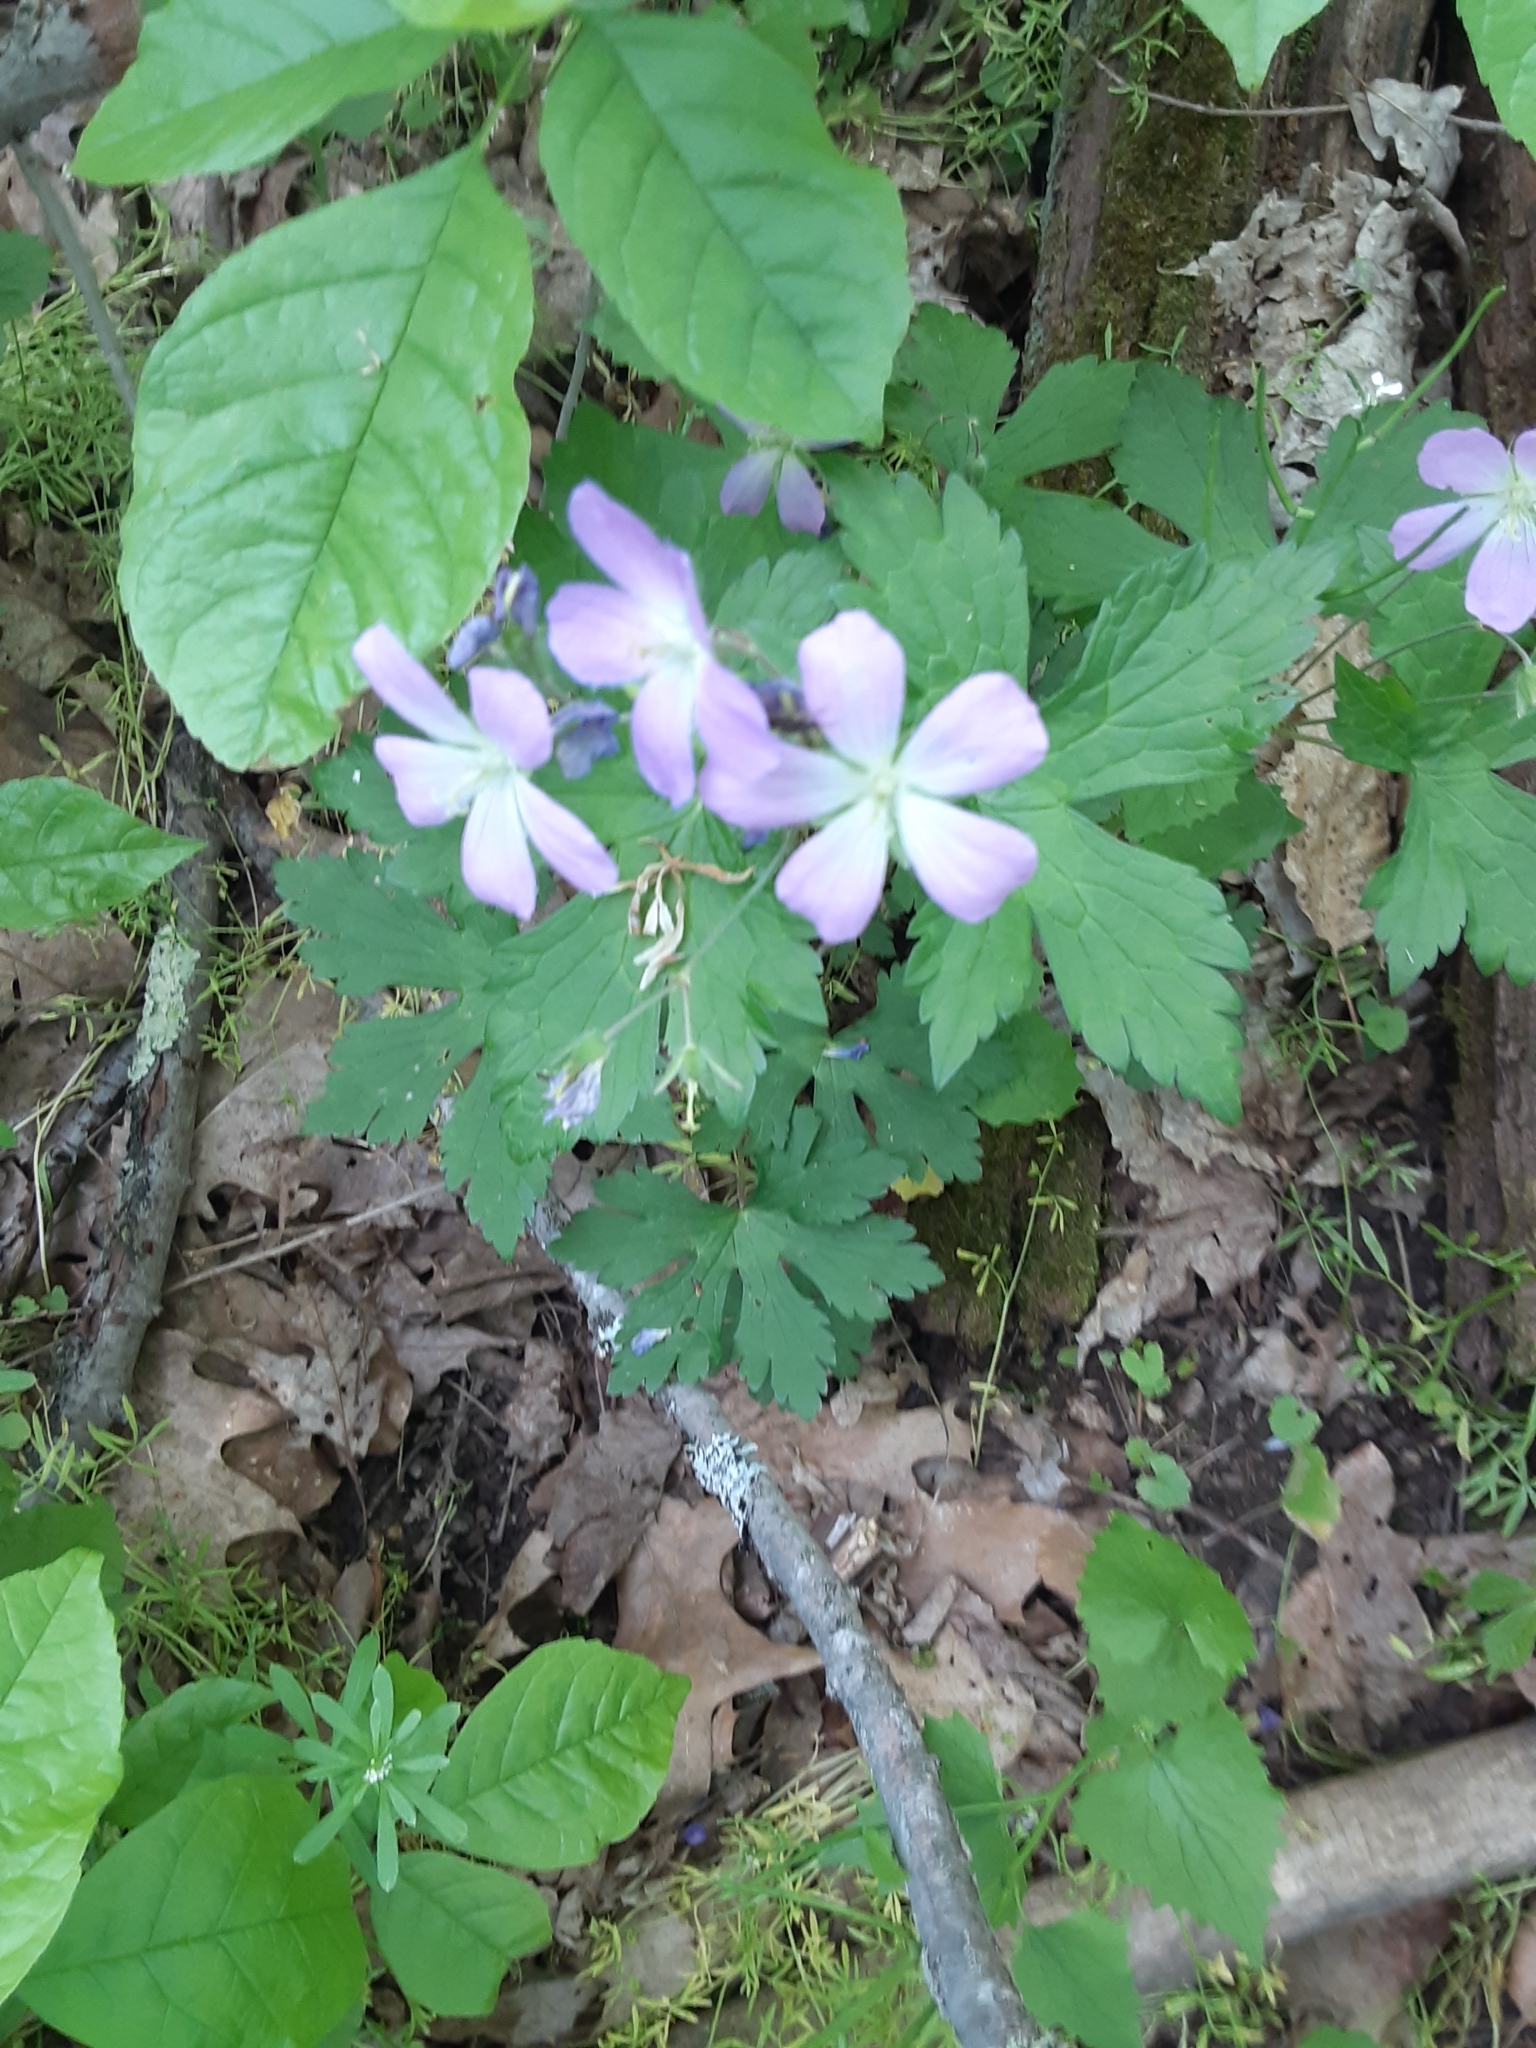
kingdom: Plantae
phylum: Tracheophyta
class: Magnoliopsida
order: Geraniales
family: Geraniaceae
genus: Geranium
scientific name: Geranium maculatum
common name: Spotted geranium
